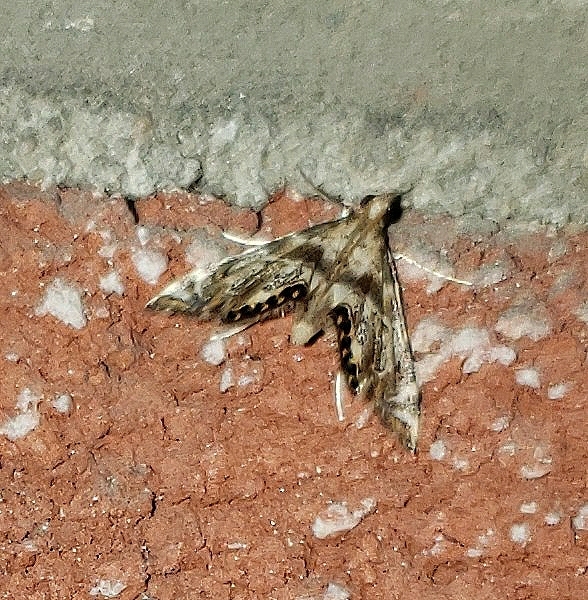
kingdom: Animalia
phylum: Arthropoda
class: Insecta
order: Lepidoptera
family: Crambidae
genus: Petrophila
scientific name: Petrophila fulicalis
